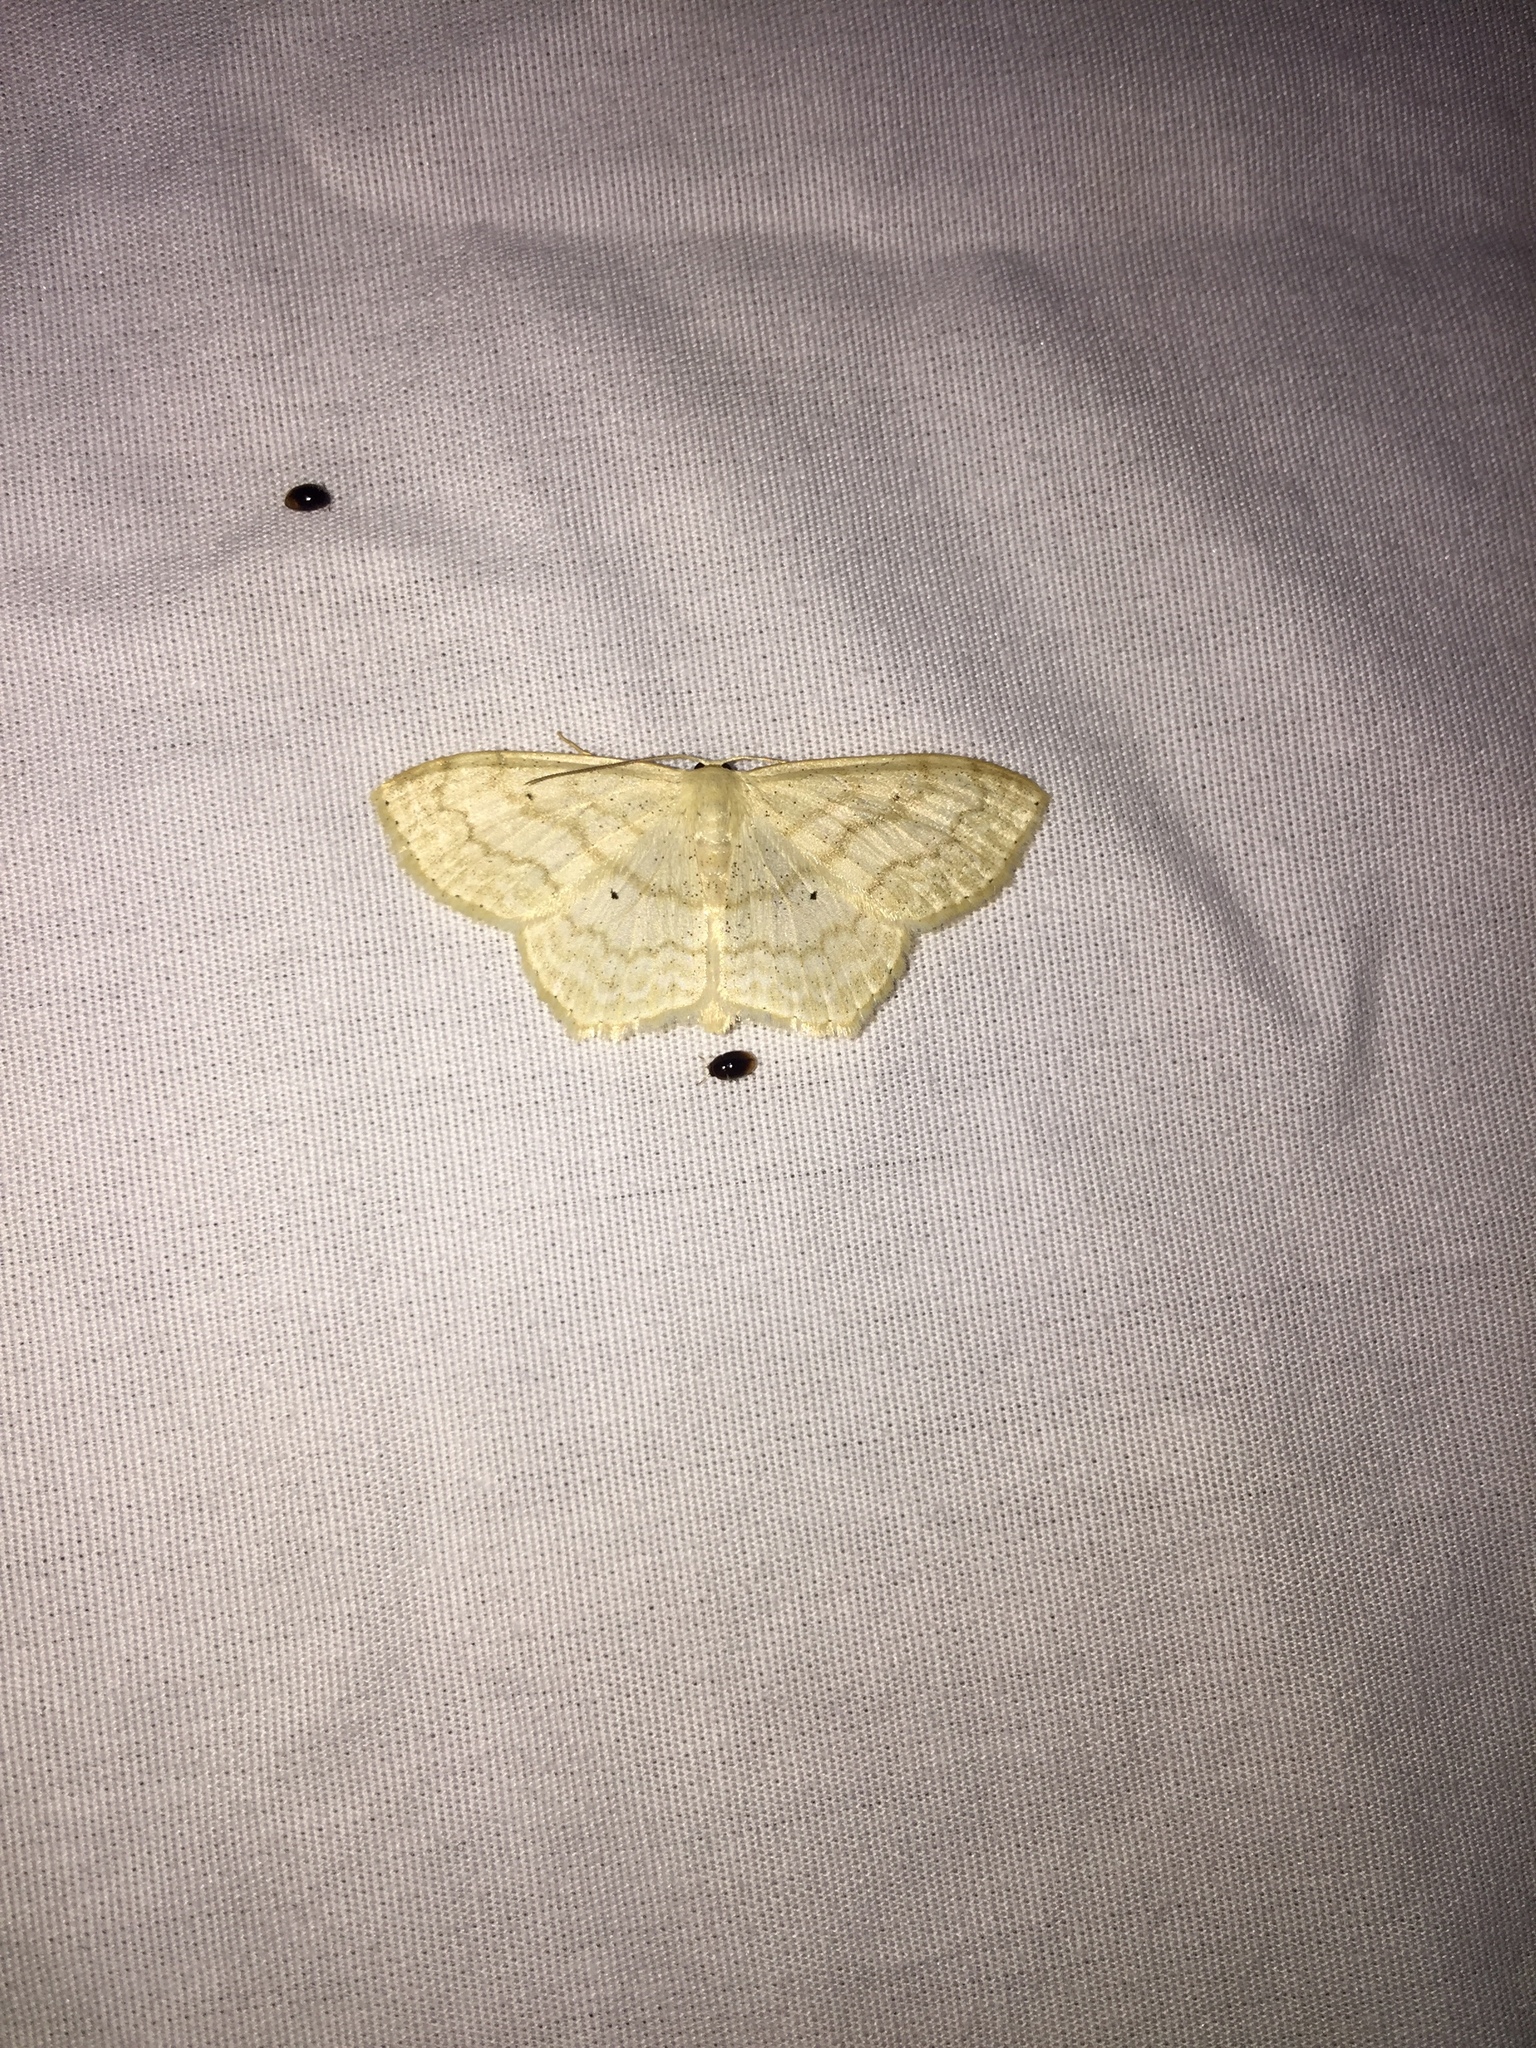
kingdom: Animalia
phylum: Arthropoda
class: Insecta
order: Lepidoptera
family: Geometridae
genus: Scopula
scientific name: Scopula limboundata
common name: Large lace border
